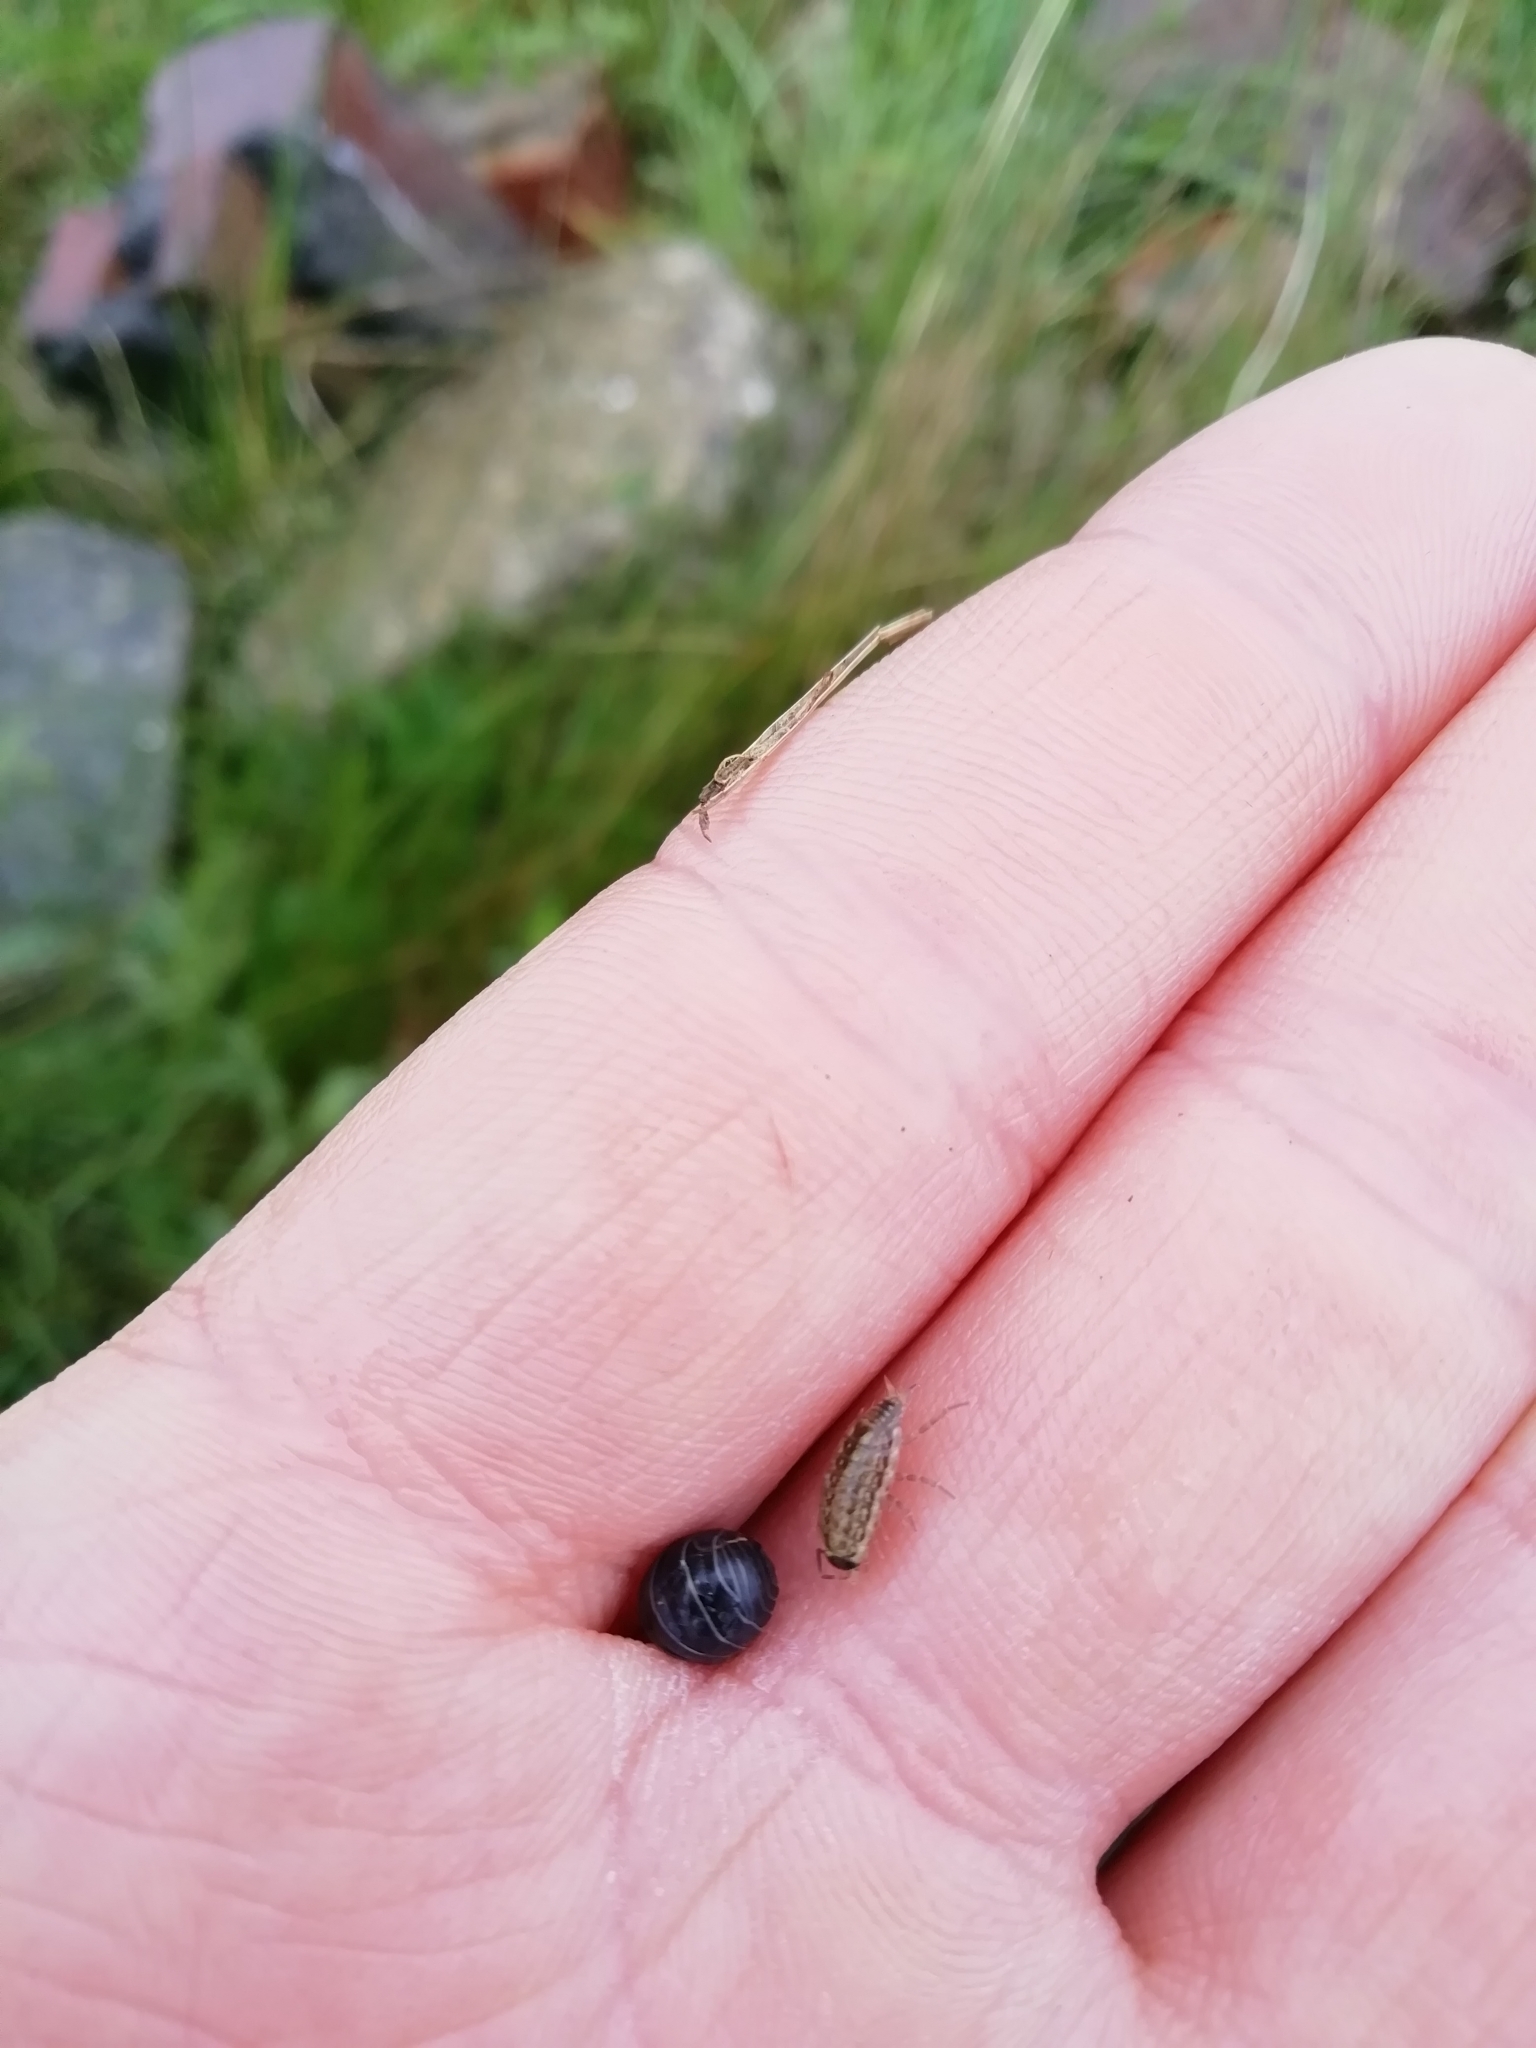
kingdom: Animalia
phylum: Arthropoda
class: Malacostraca
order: Isopoda
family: Philosciidae
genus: Philoscia
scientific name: Philoscia muscorum
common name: Common striped woodlouse
